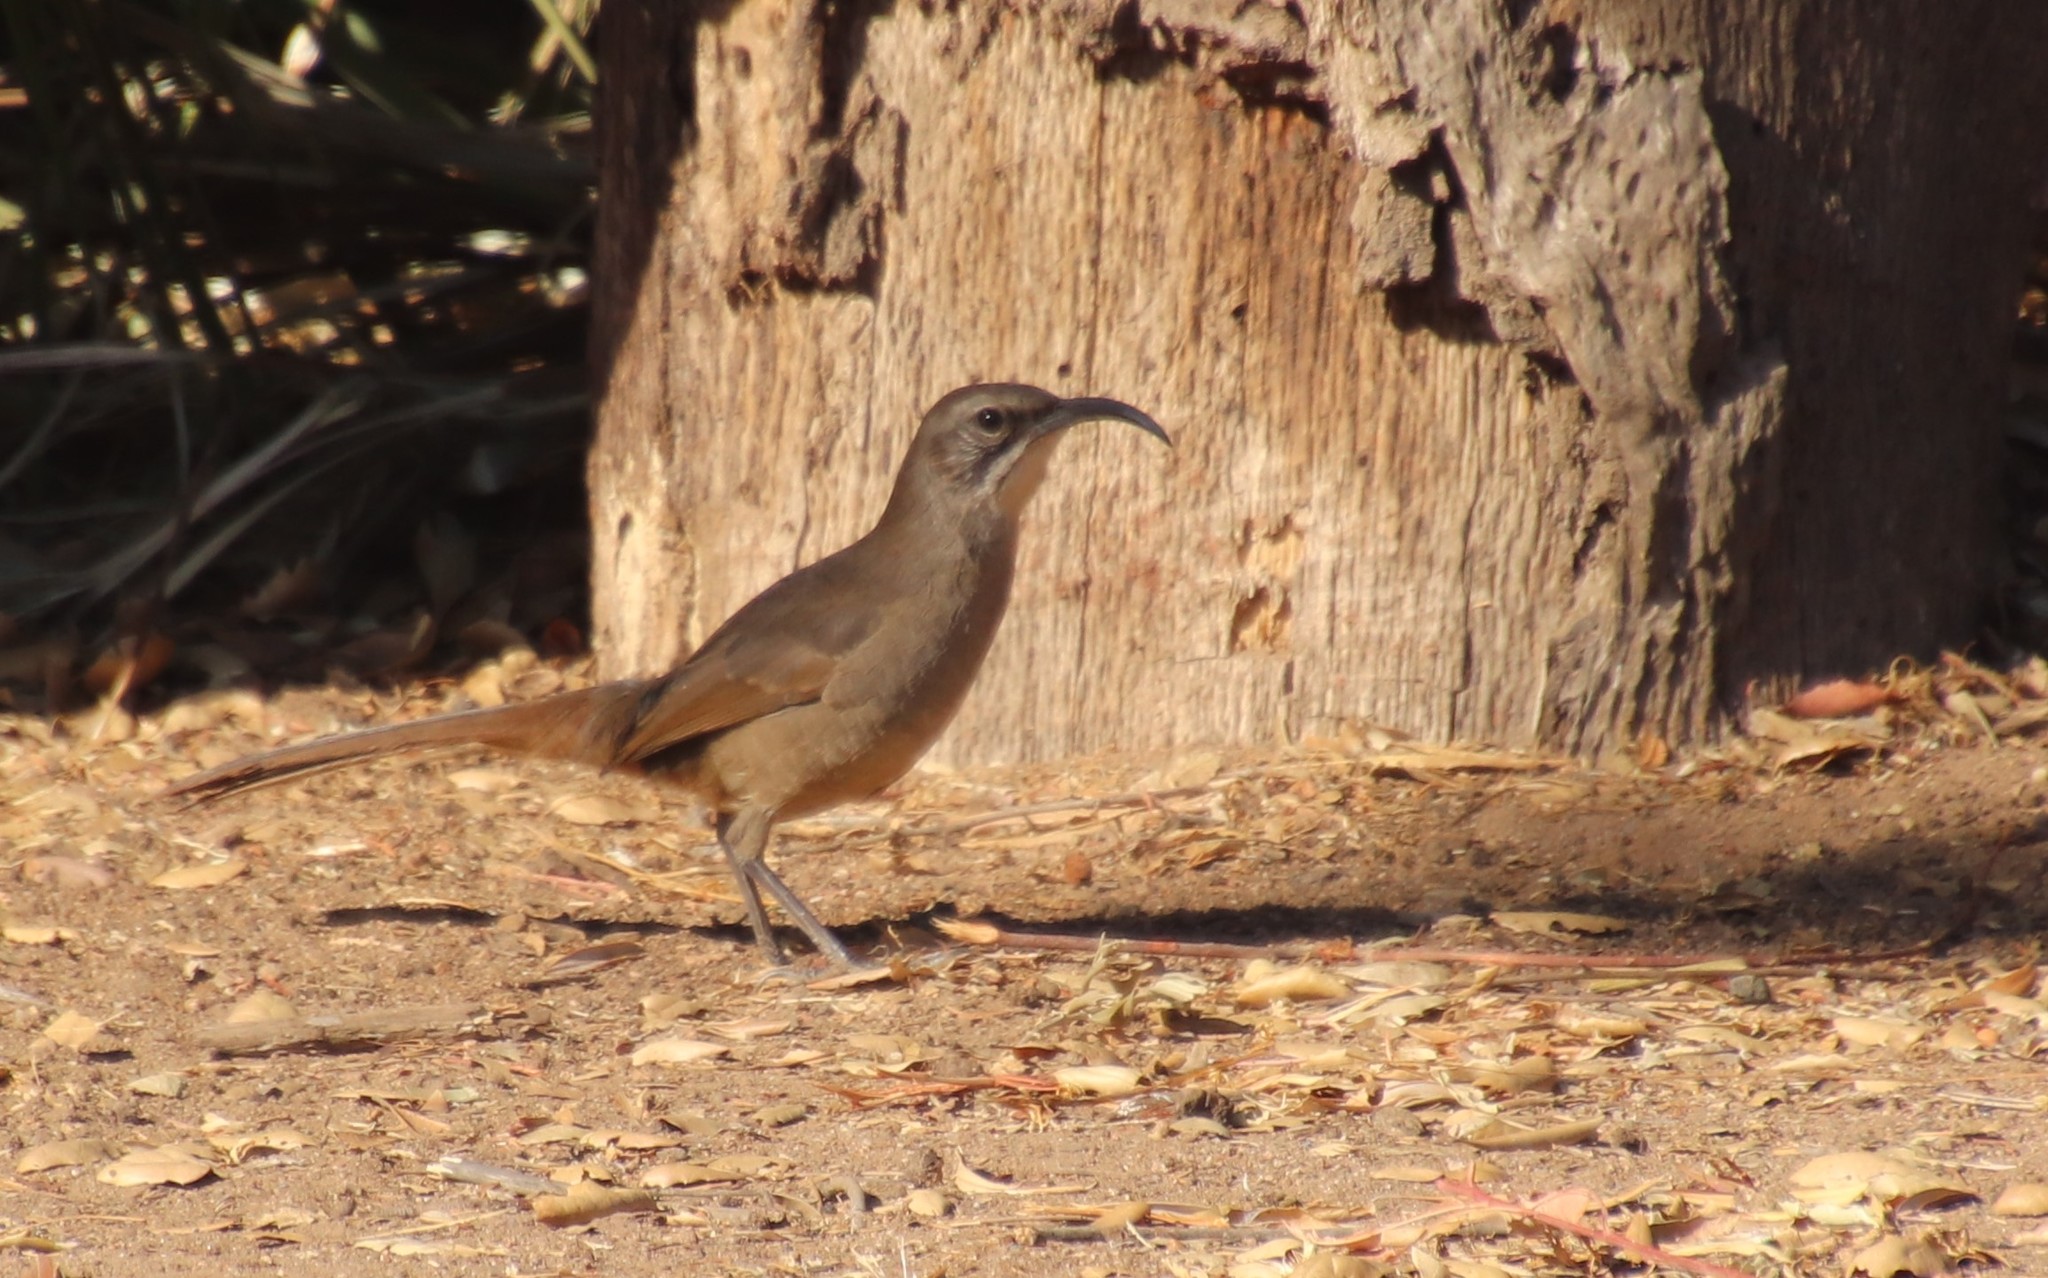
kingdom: Animalia
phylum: Chordata
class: Aves
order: Passeriformes
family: Mimidae
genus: Toxostoma
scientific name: Toxostoma redivivum
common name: California thrasher
